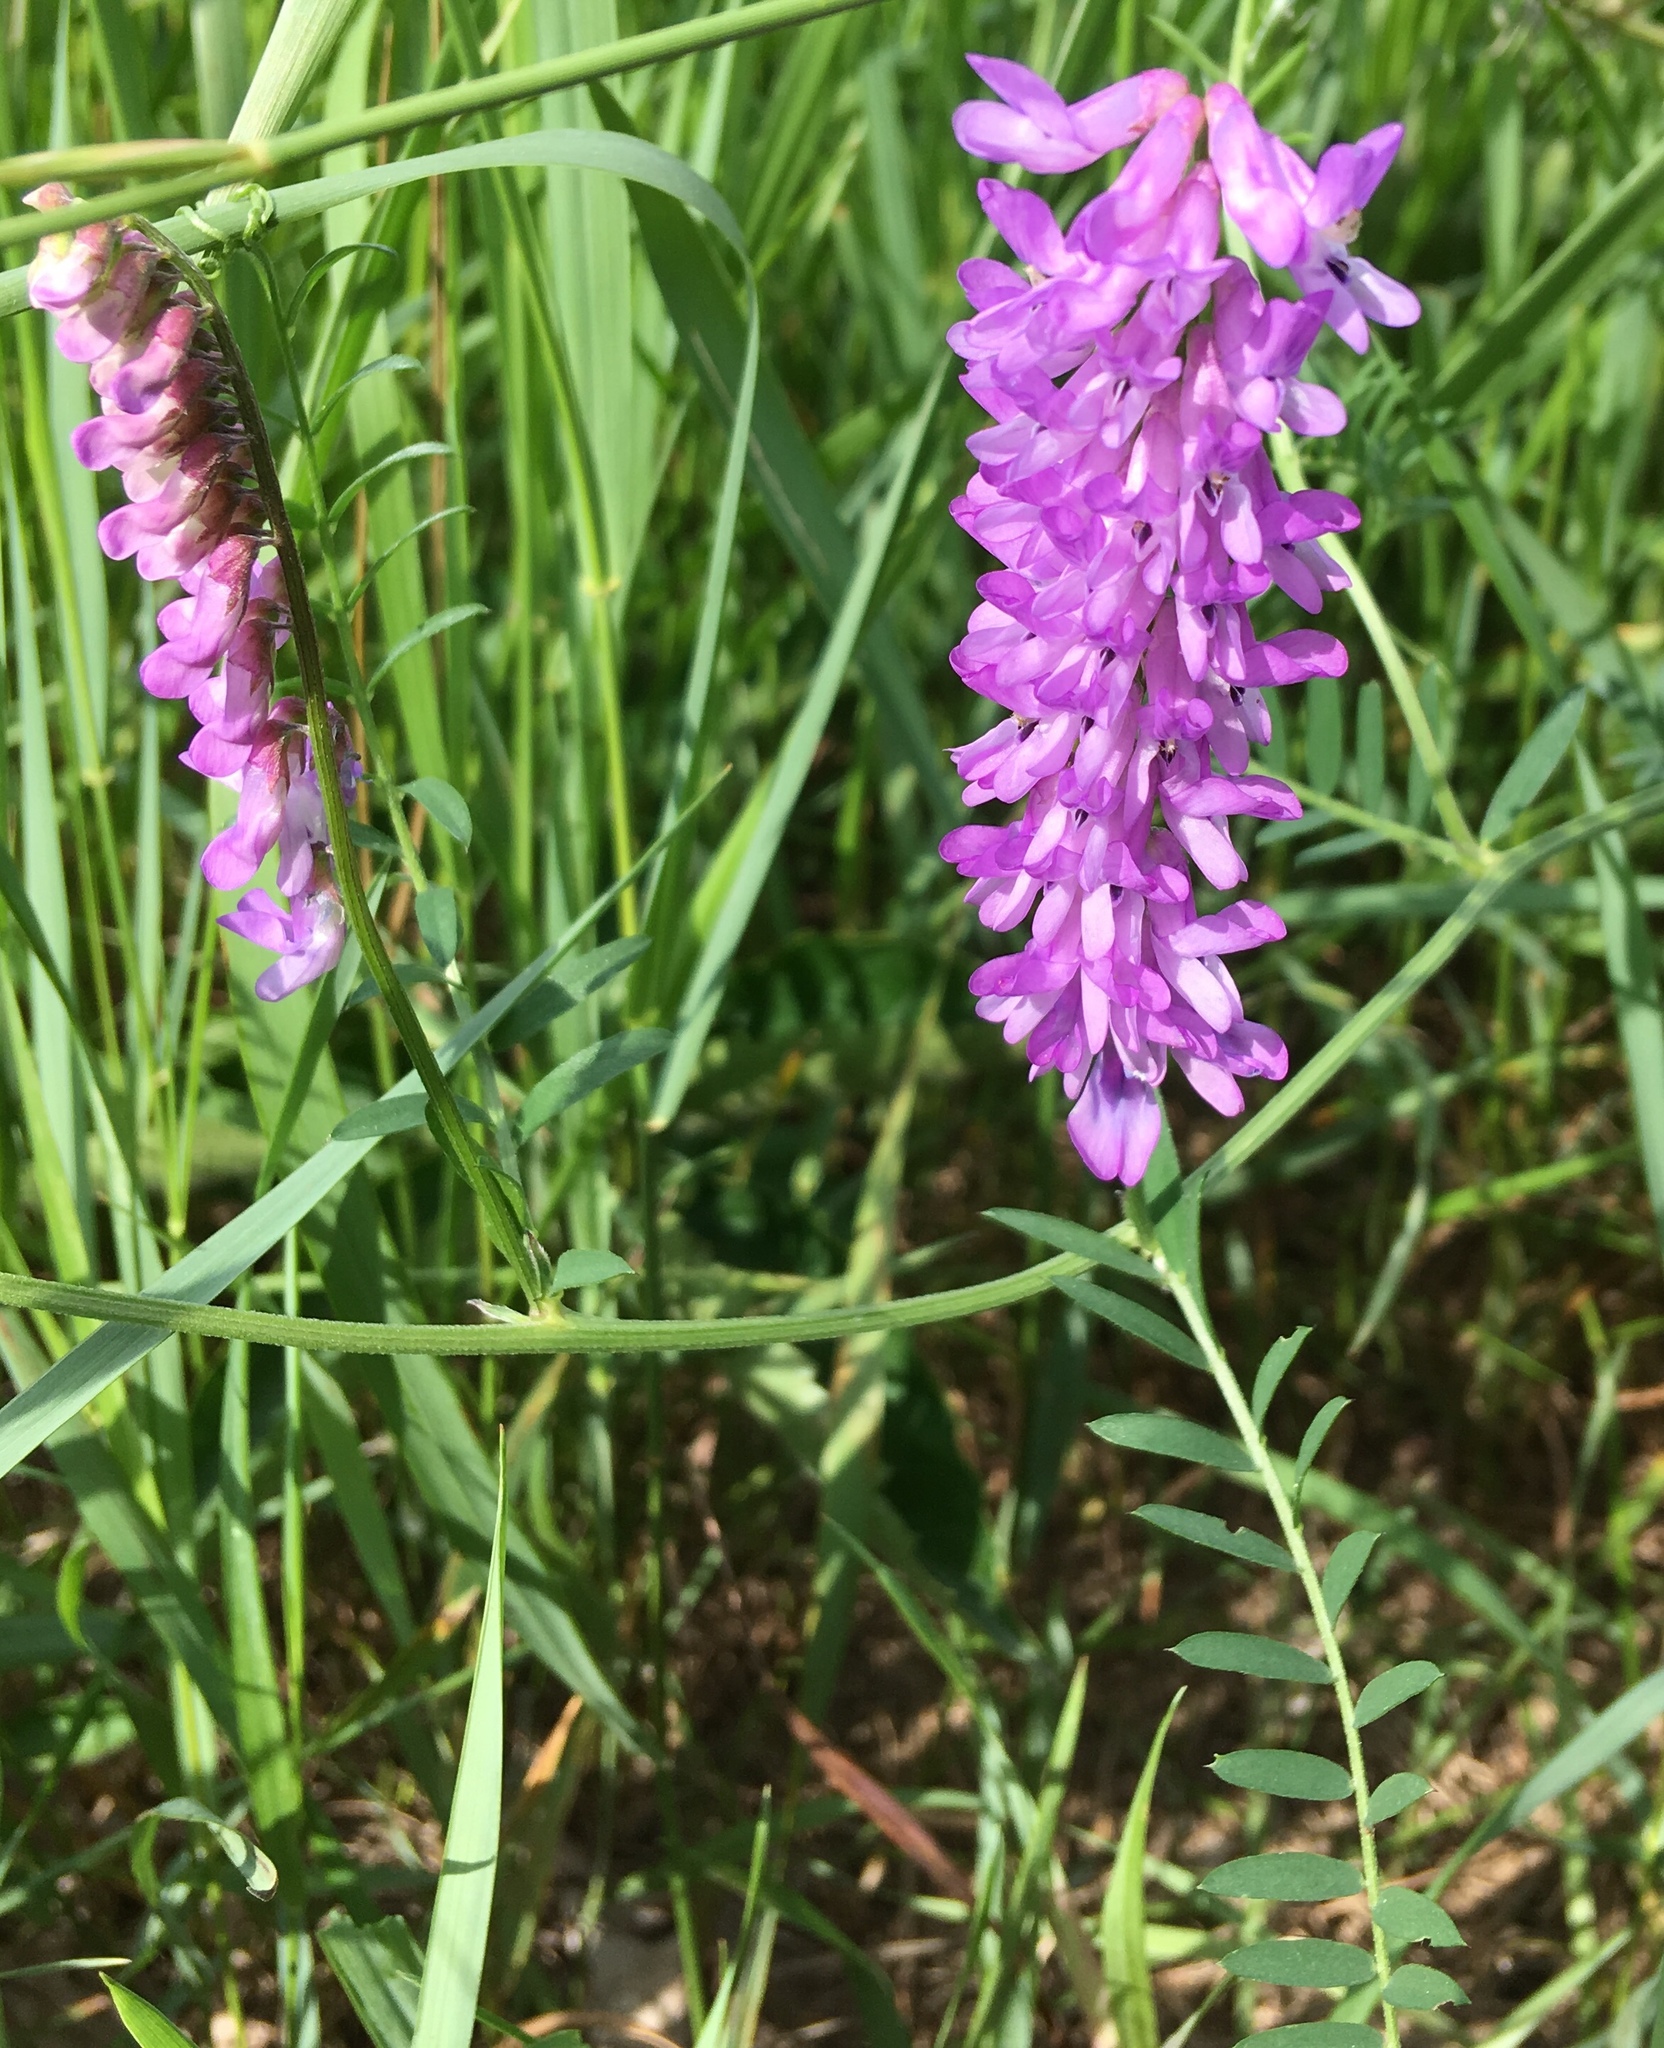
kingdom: Plantae
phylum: Tracheophyta
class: Magnoliopsida
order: Fabales
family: Fabaceae
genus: Vicia
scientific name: Vicia cracca
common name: Bird vetch
